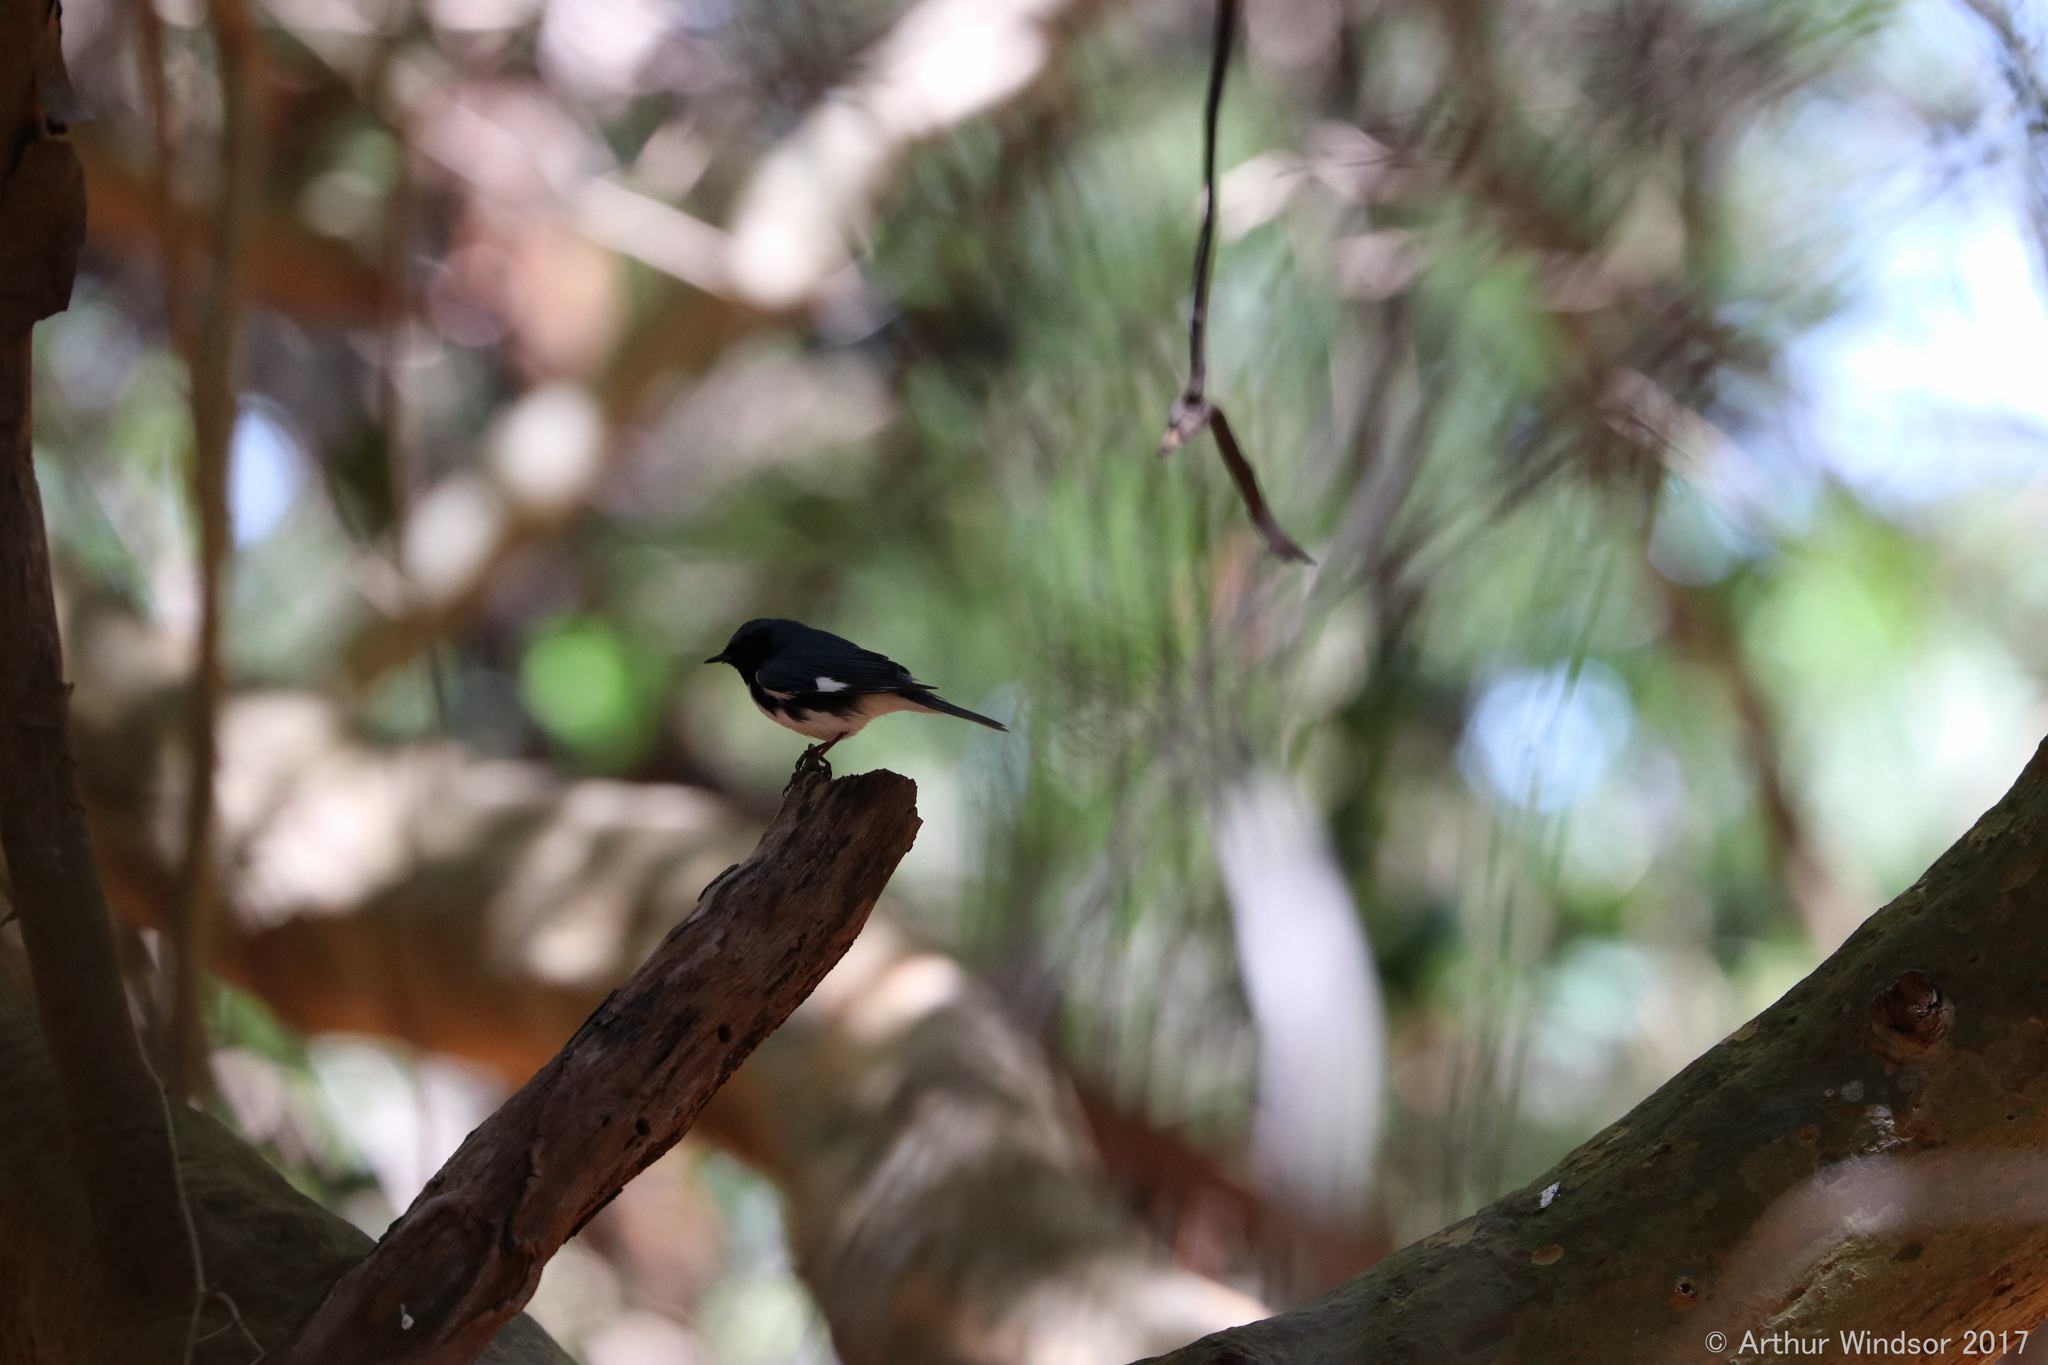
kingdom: Animalia
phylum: Chordata
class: Aves
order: Passeriformes
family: Parulidae
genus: Setophaga
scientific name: Setophaga caerulescens
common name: Black-throated blue warbler
